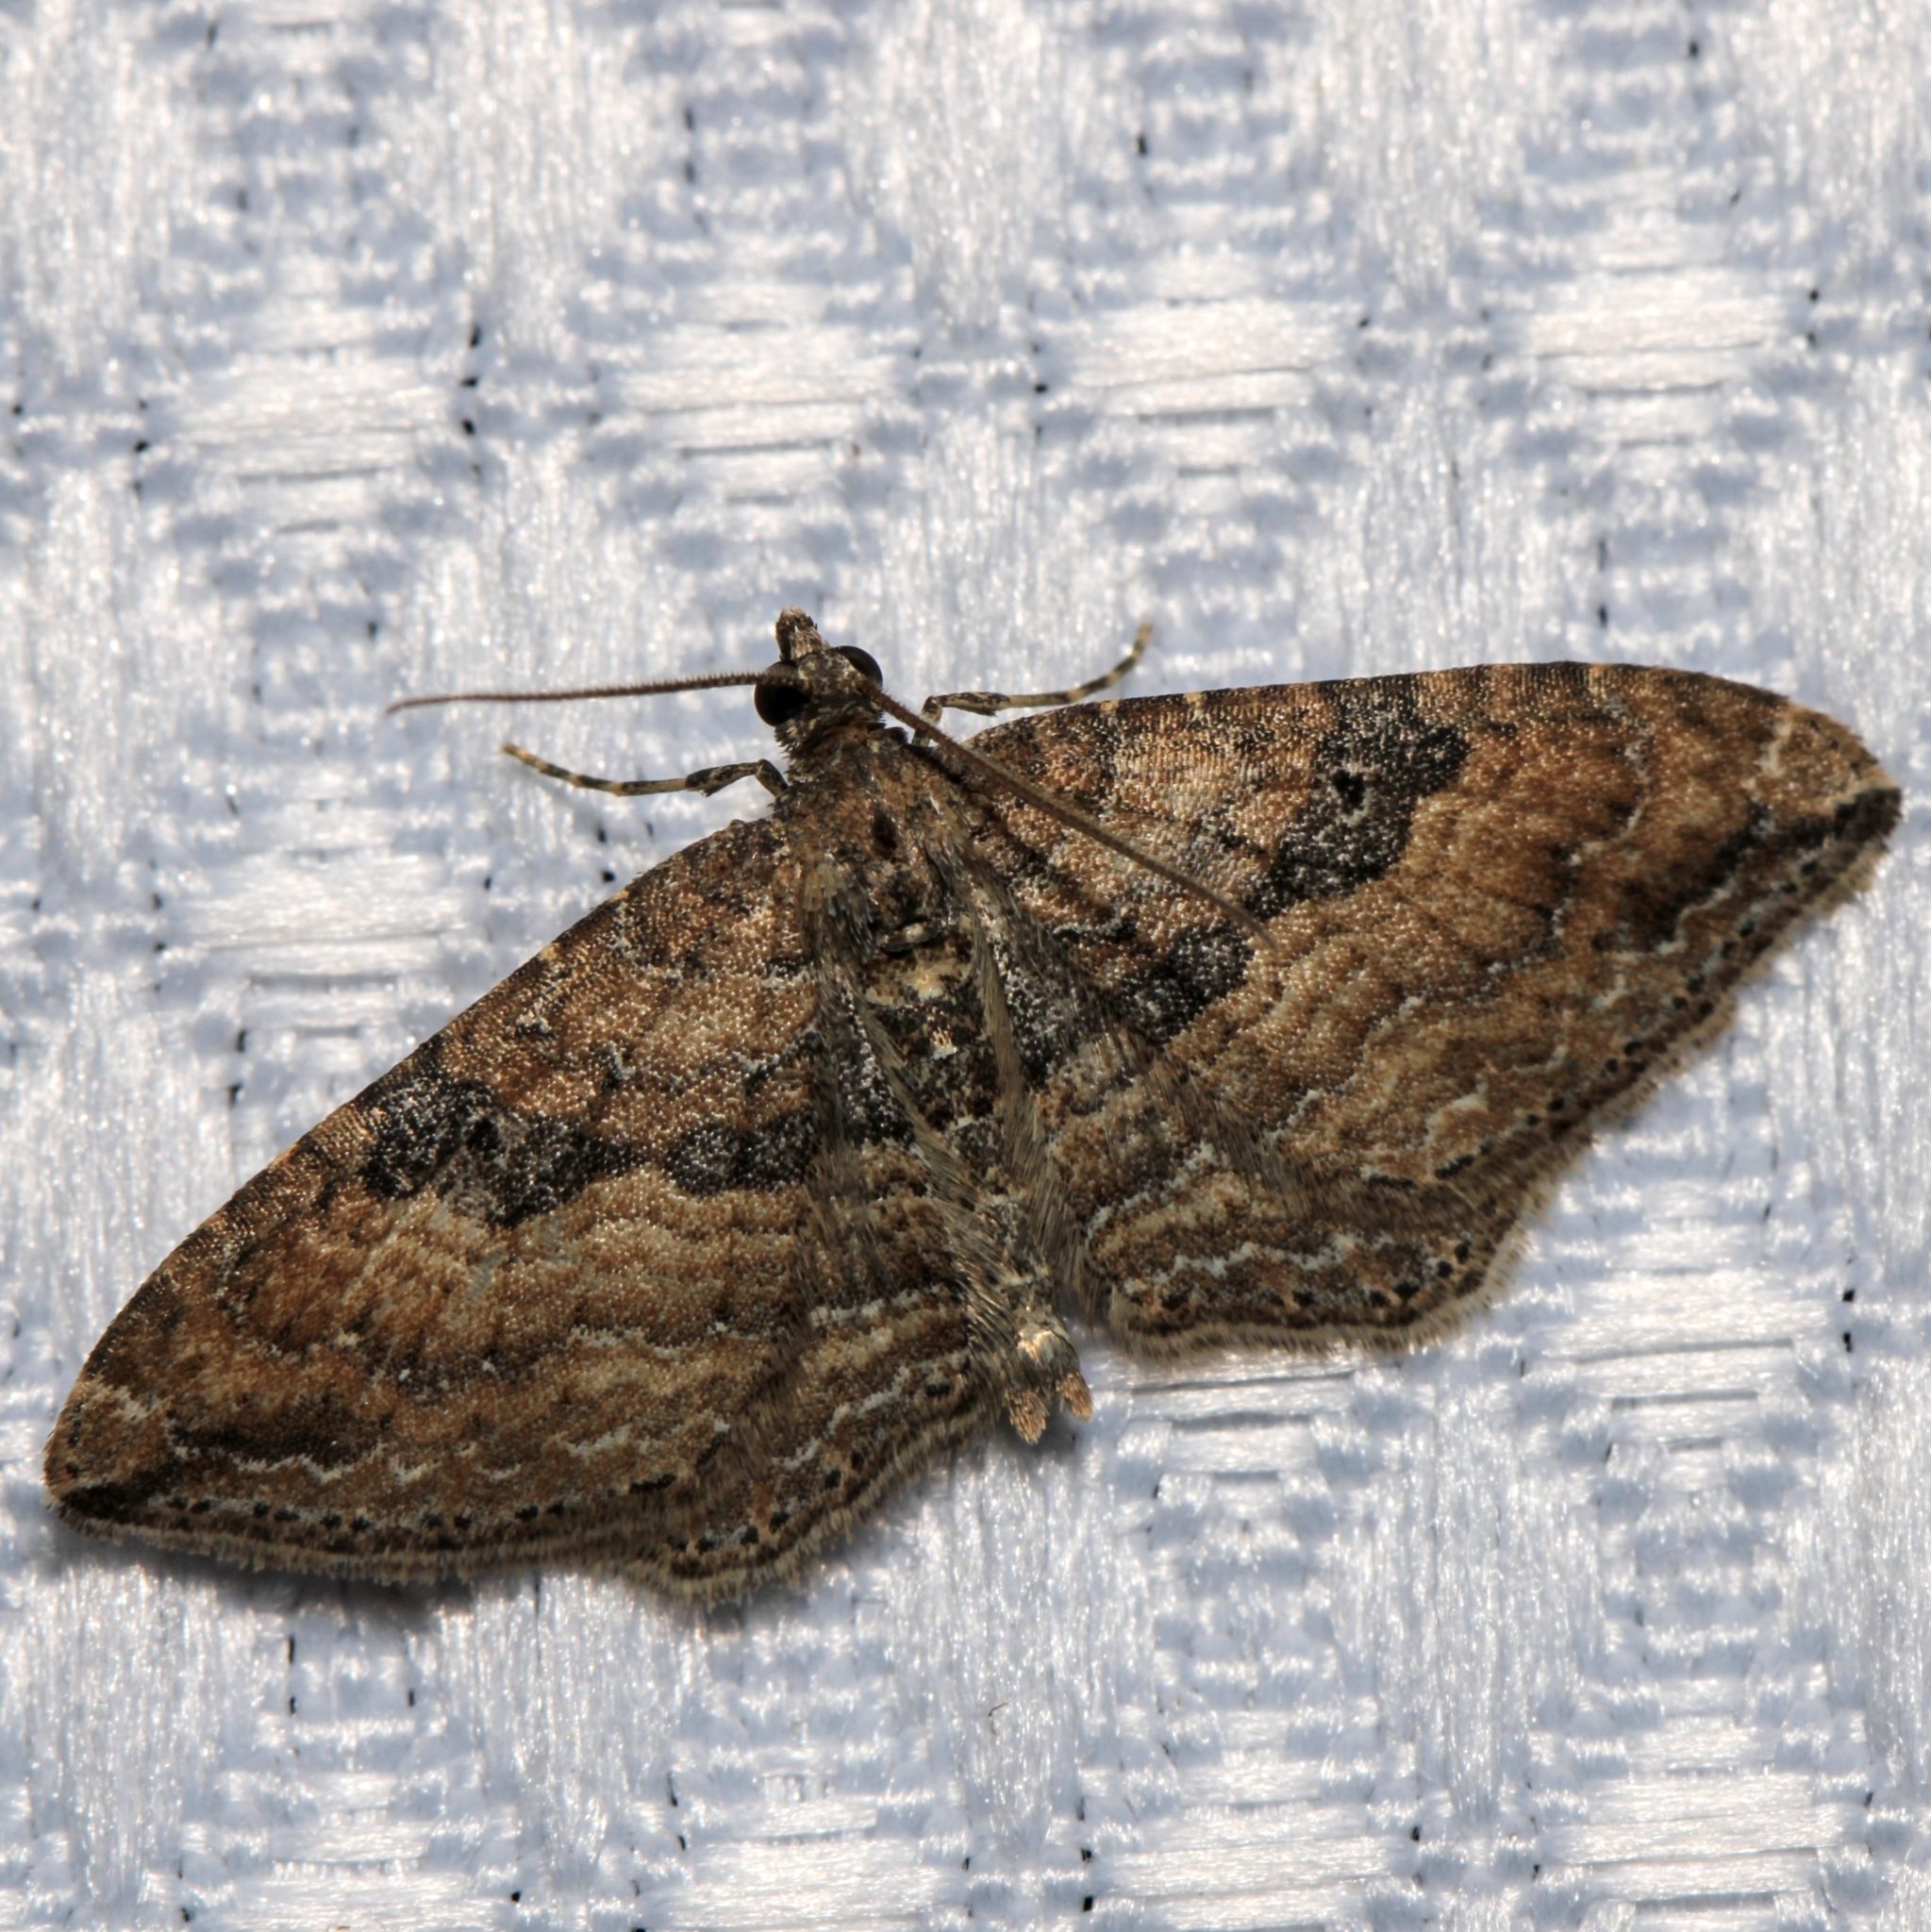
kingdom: Animalia
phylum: Arthropoda
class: Insecta
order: Lepidoptera
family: Geometridae
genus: Orthonama
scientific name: Orthonama obstipata
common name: The gem
